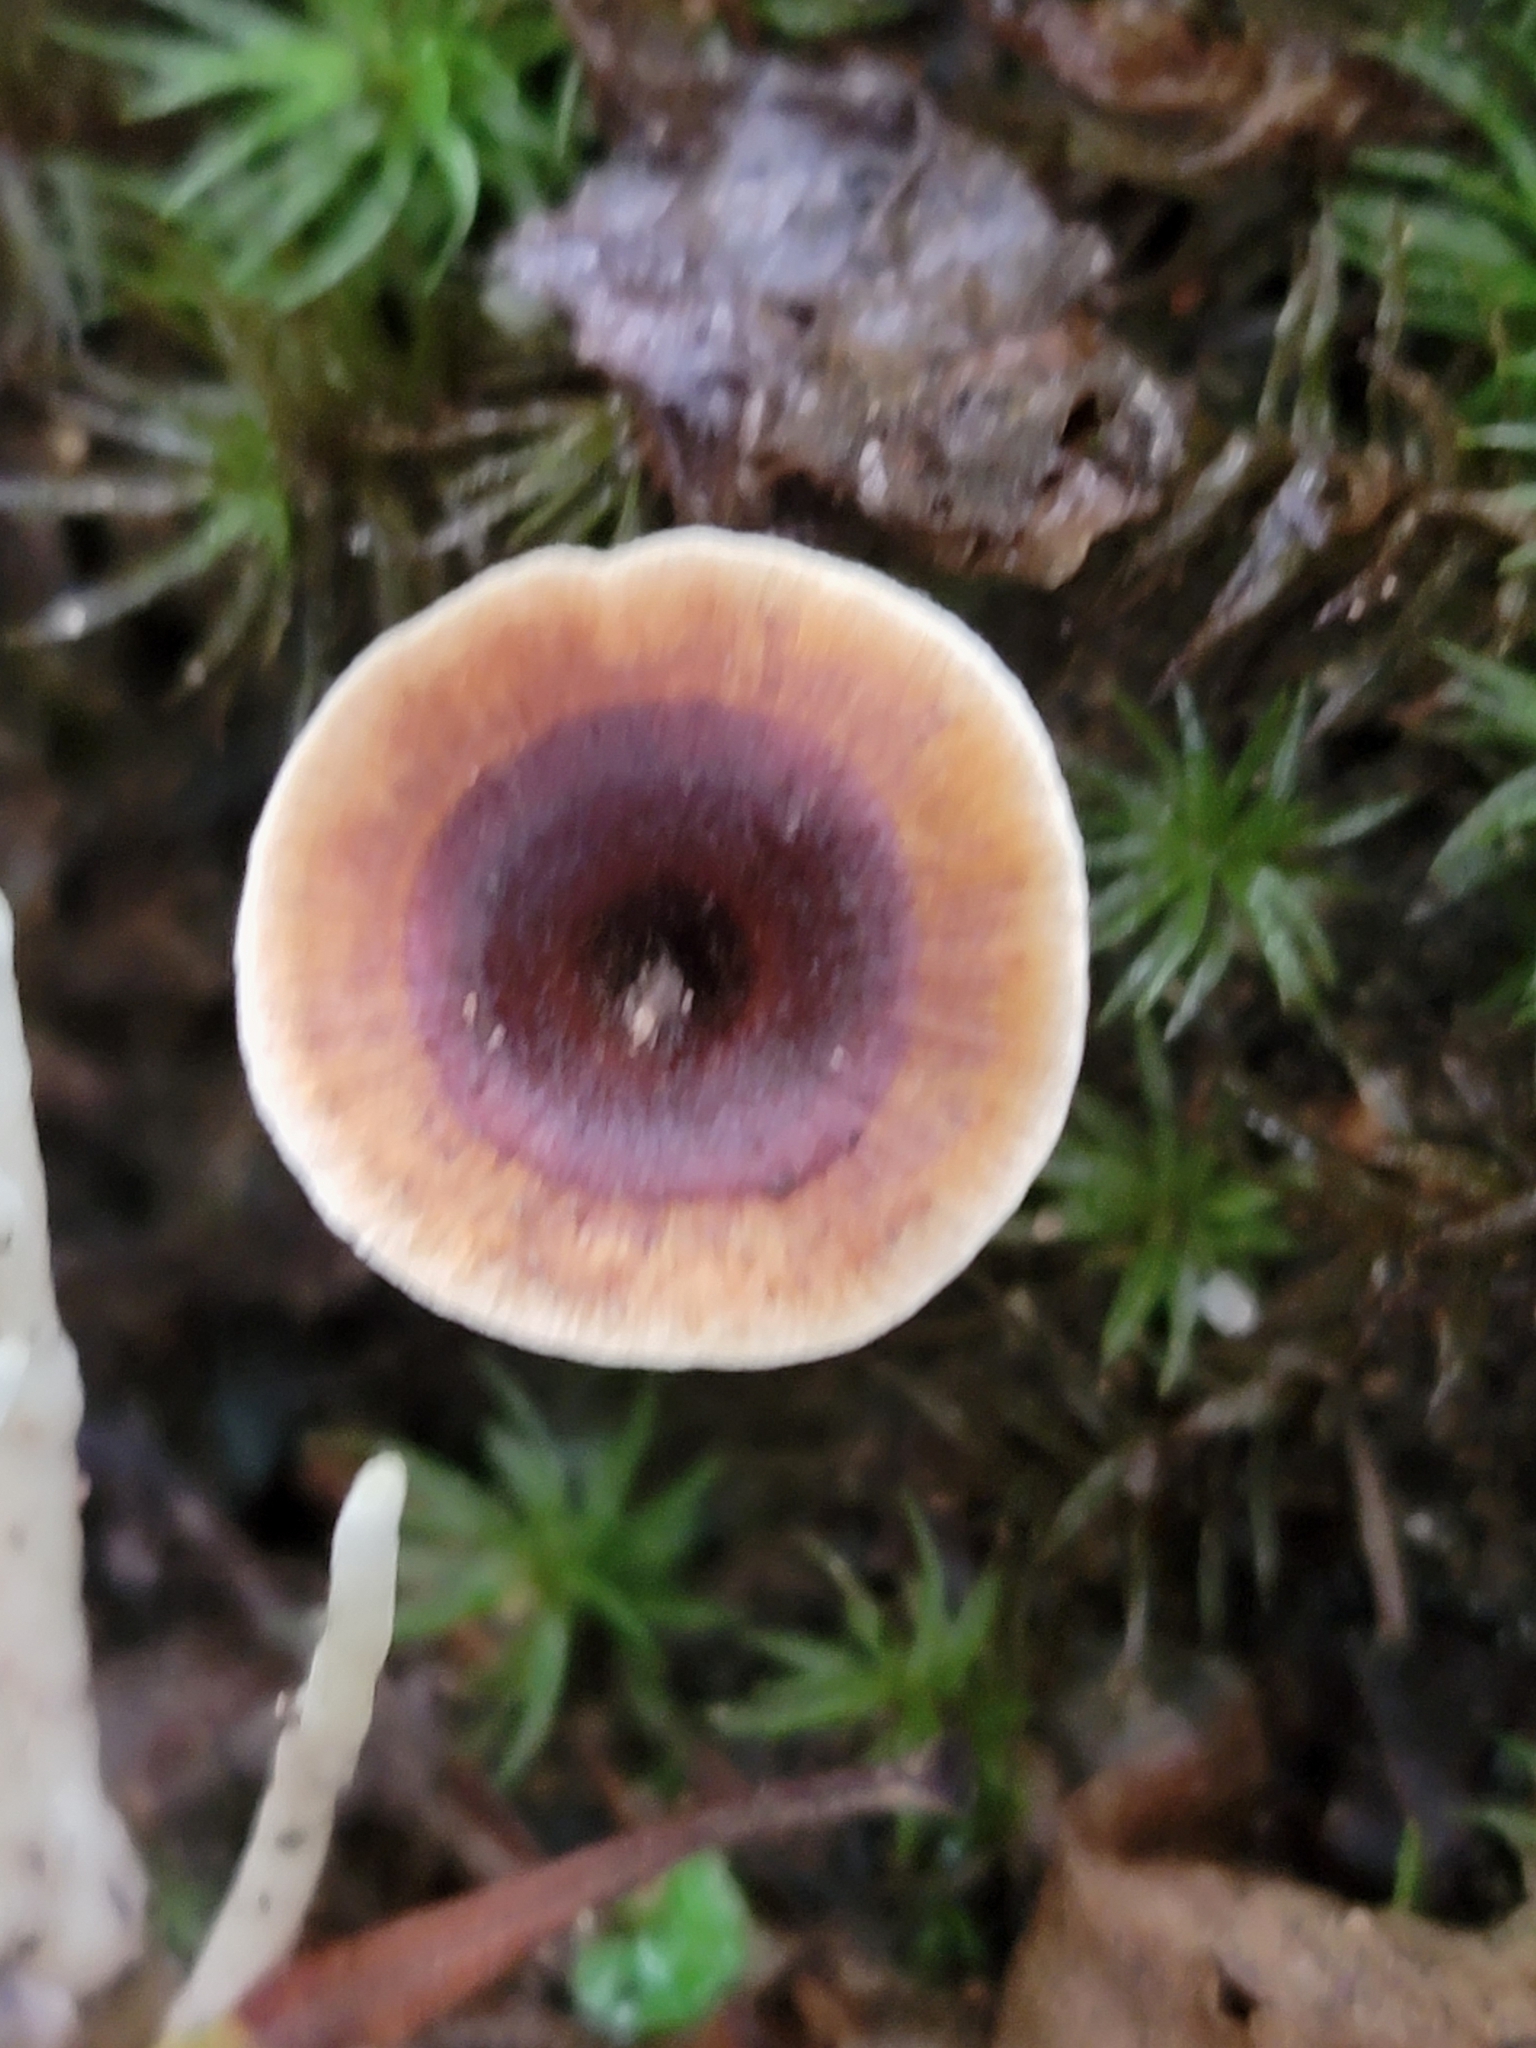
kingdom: Fungi
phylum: Basidiomycota
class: Agaricomycetes
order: Hymenochaetales
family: Hymenochaetaceae
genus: Coltricia
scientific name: Coltricia cinnamomea
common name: Shiny cinnamon polypore
